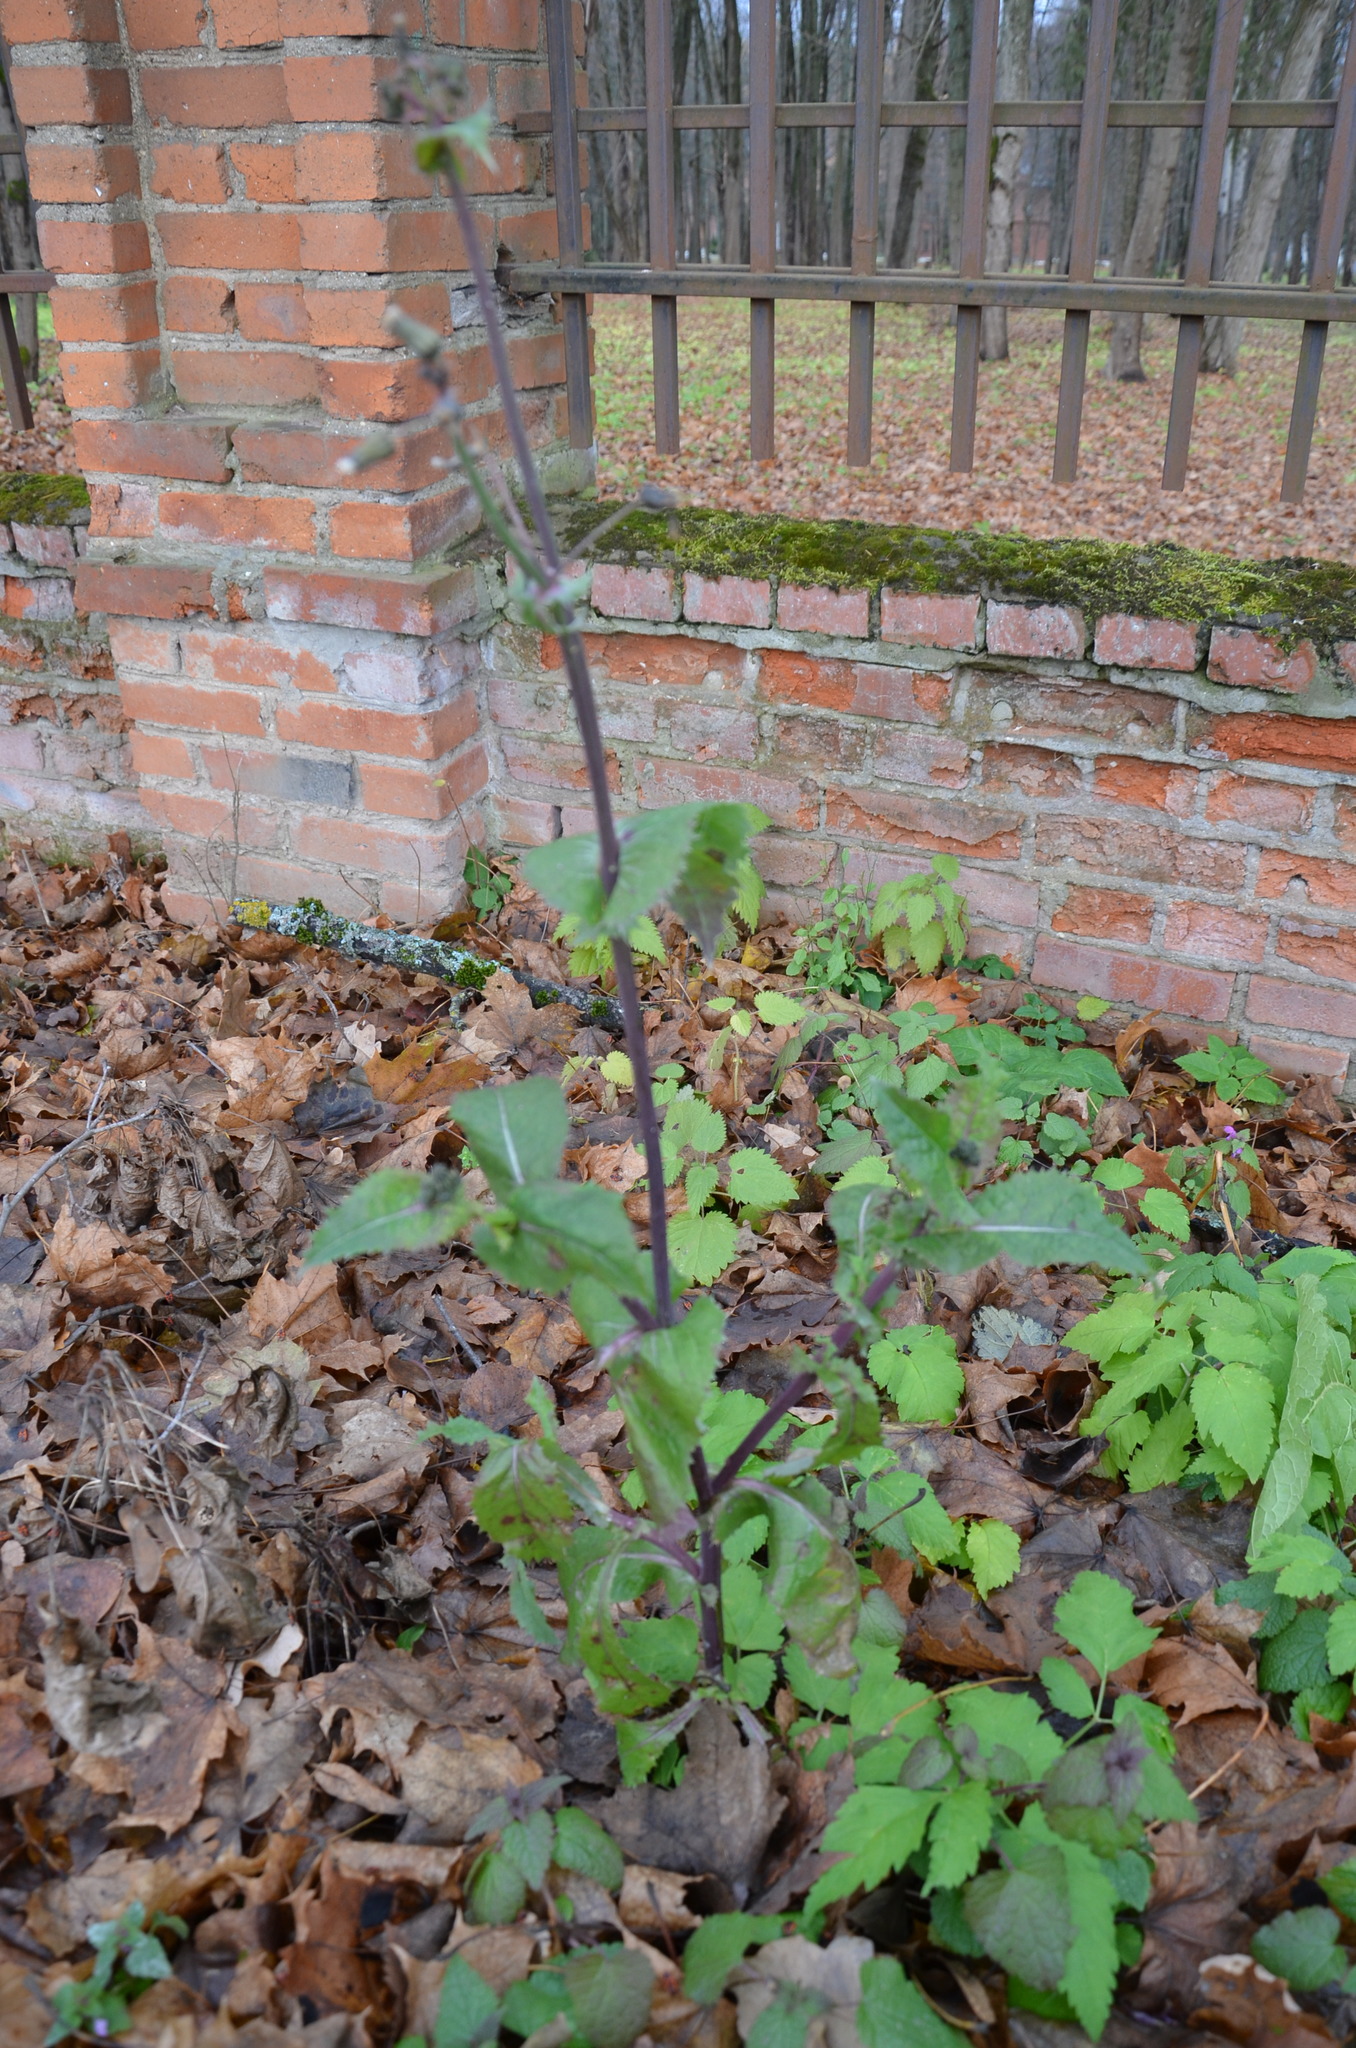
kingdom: Plantae
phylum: Tracheophyta
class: Magnoliopsida
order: Asterales
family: Asteraceae
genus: Sonchus
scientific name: Sonchus oleraceus
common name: Common sowthistle
